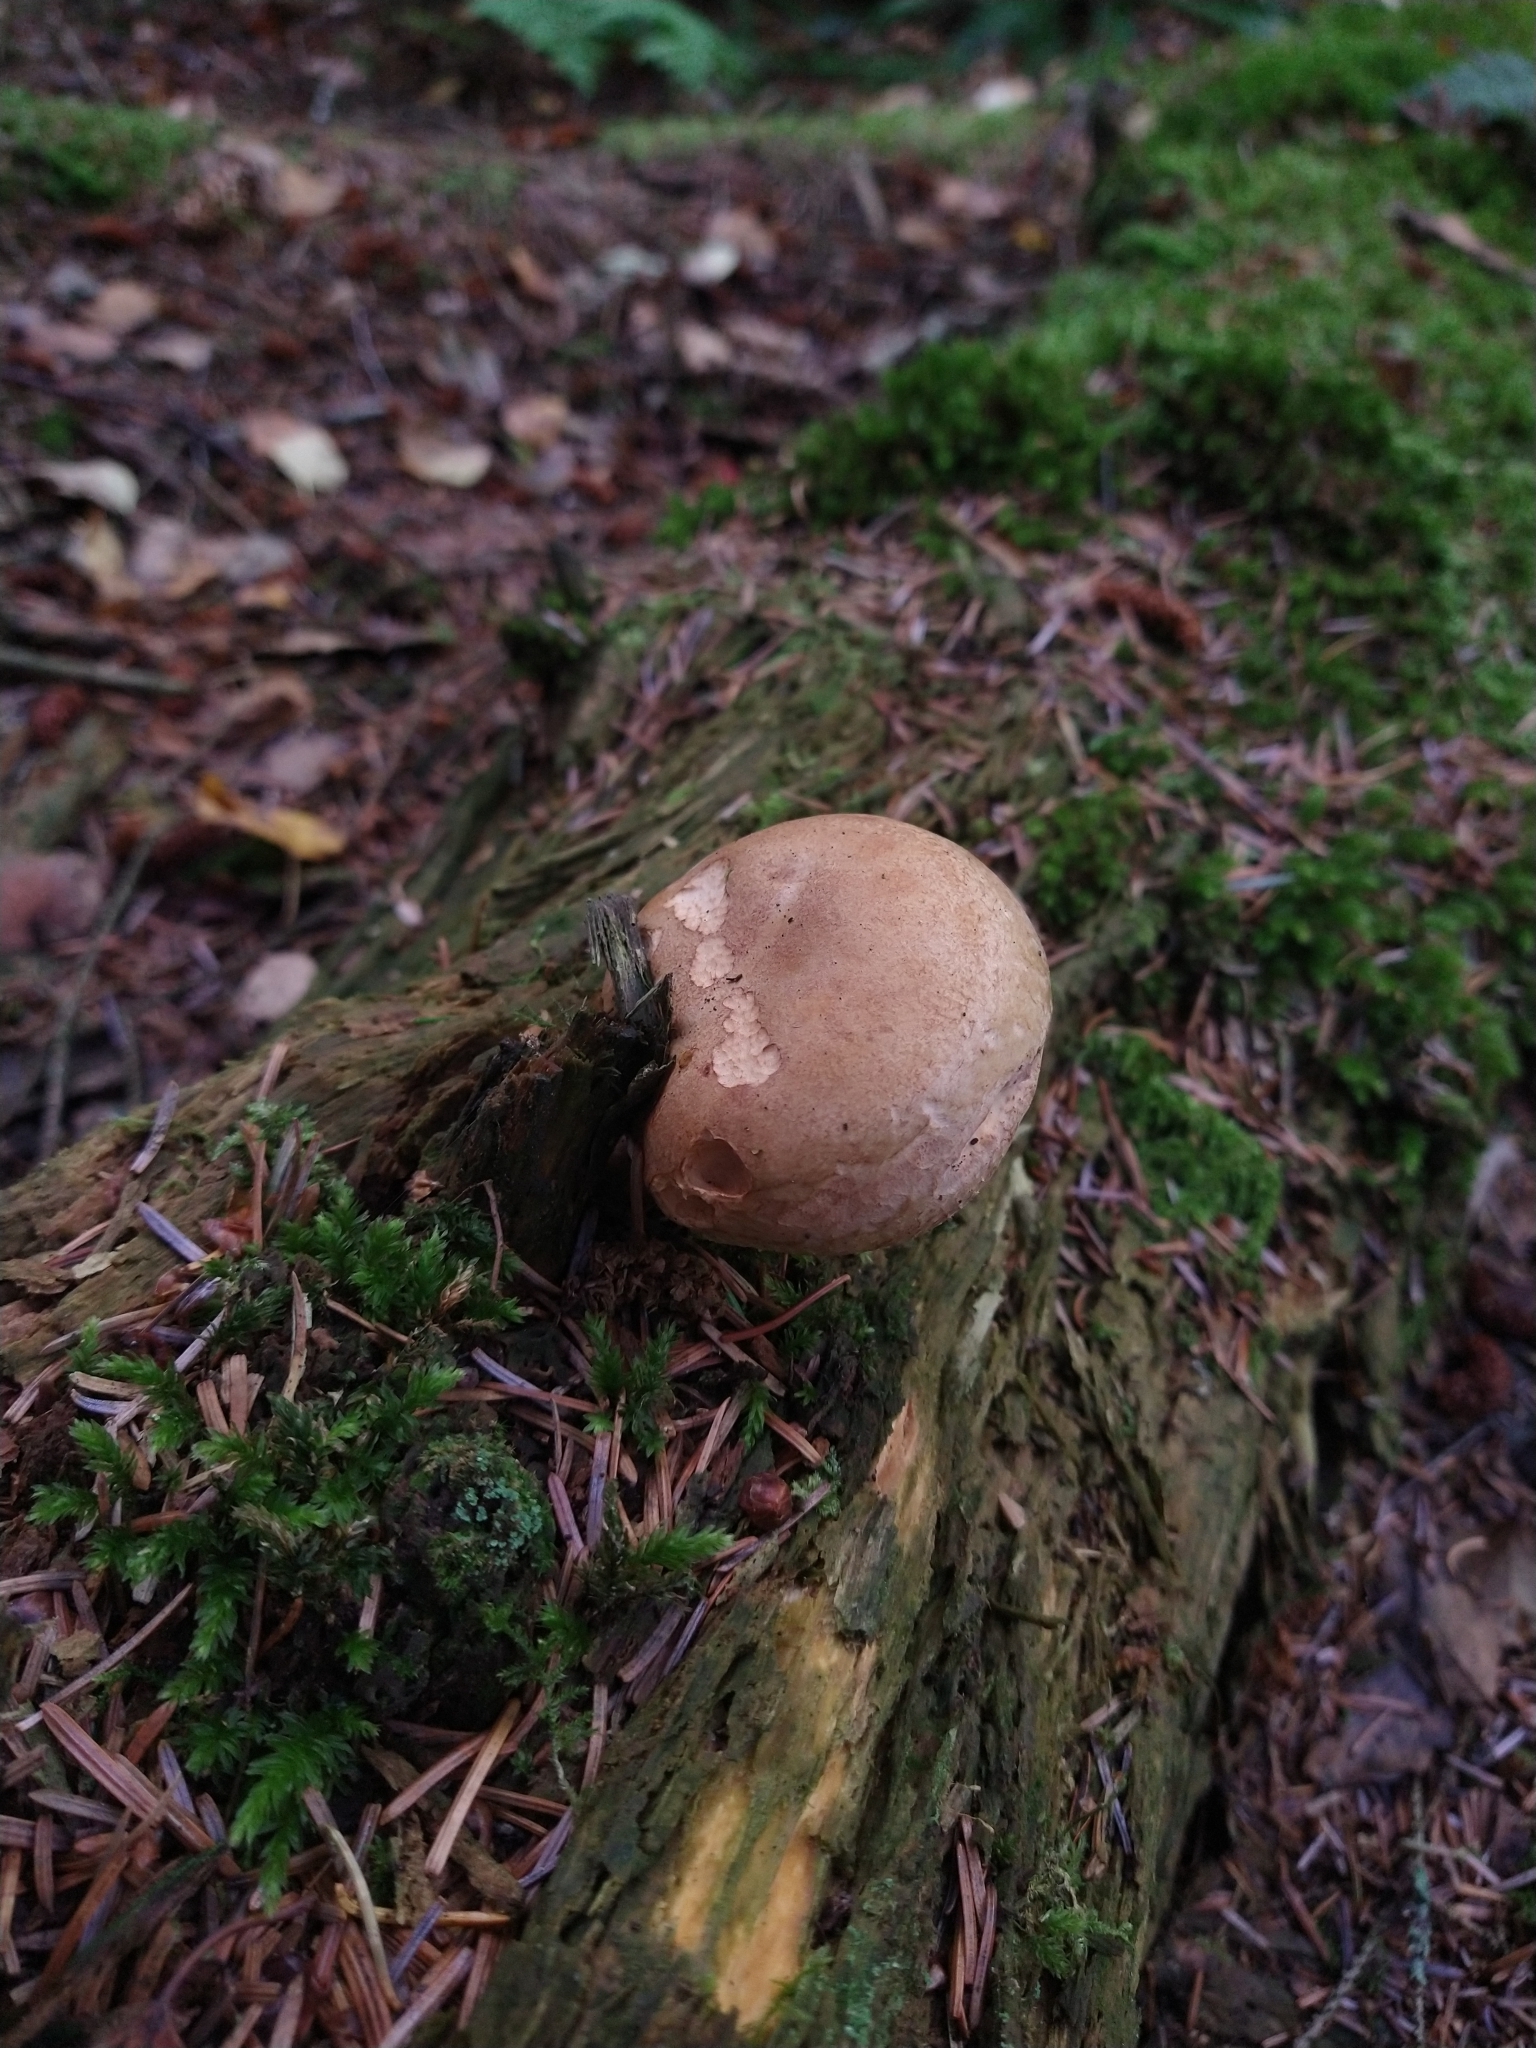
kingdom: Fungi
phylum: Basidiomycota
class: Agaricomycetes
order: Boletales
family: Paxillaceae
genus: Paxillus
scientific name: Paxillus involutus
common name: Brown roll rim
